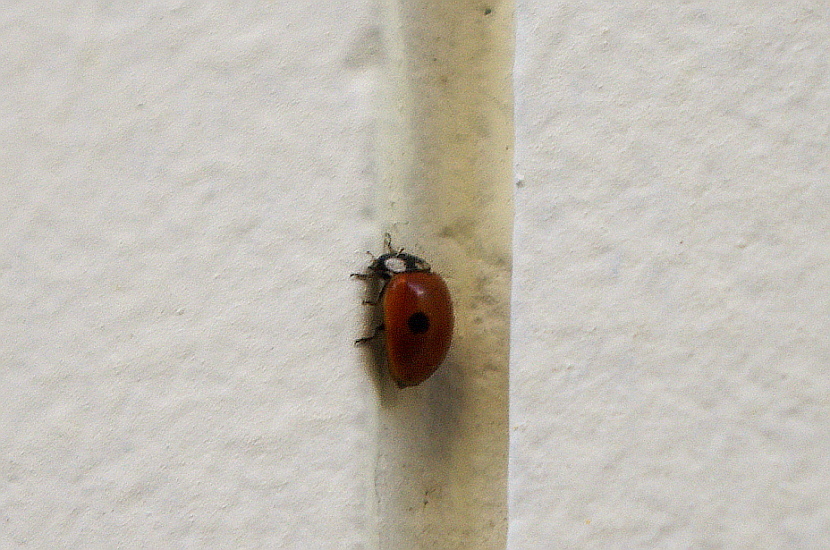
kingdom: Animalia
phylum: Arthropoda
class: Insecta
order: Coleoptera
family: Coccinellidae
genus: Adalia
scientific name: Adalia bipunctata
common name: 2-spot ladybird
